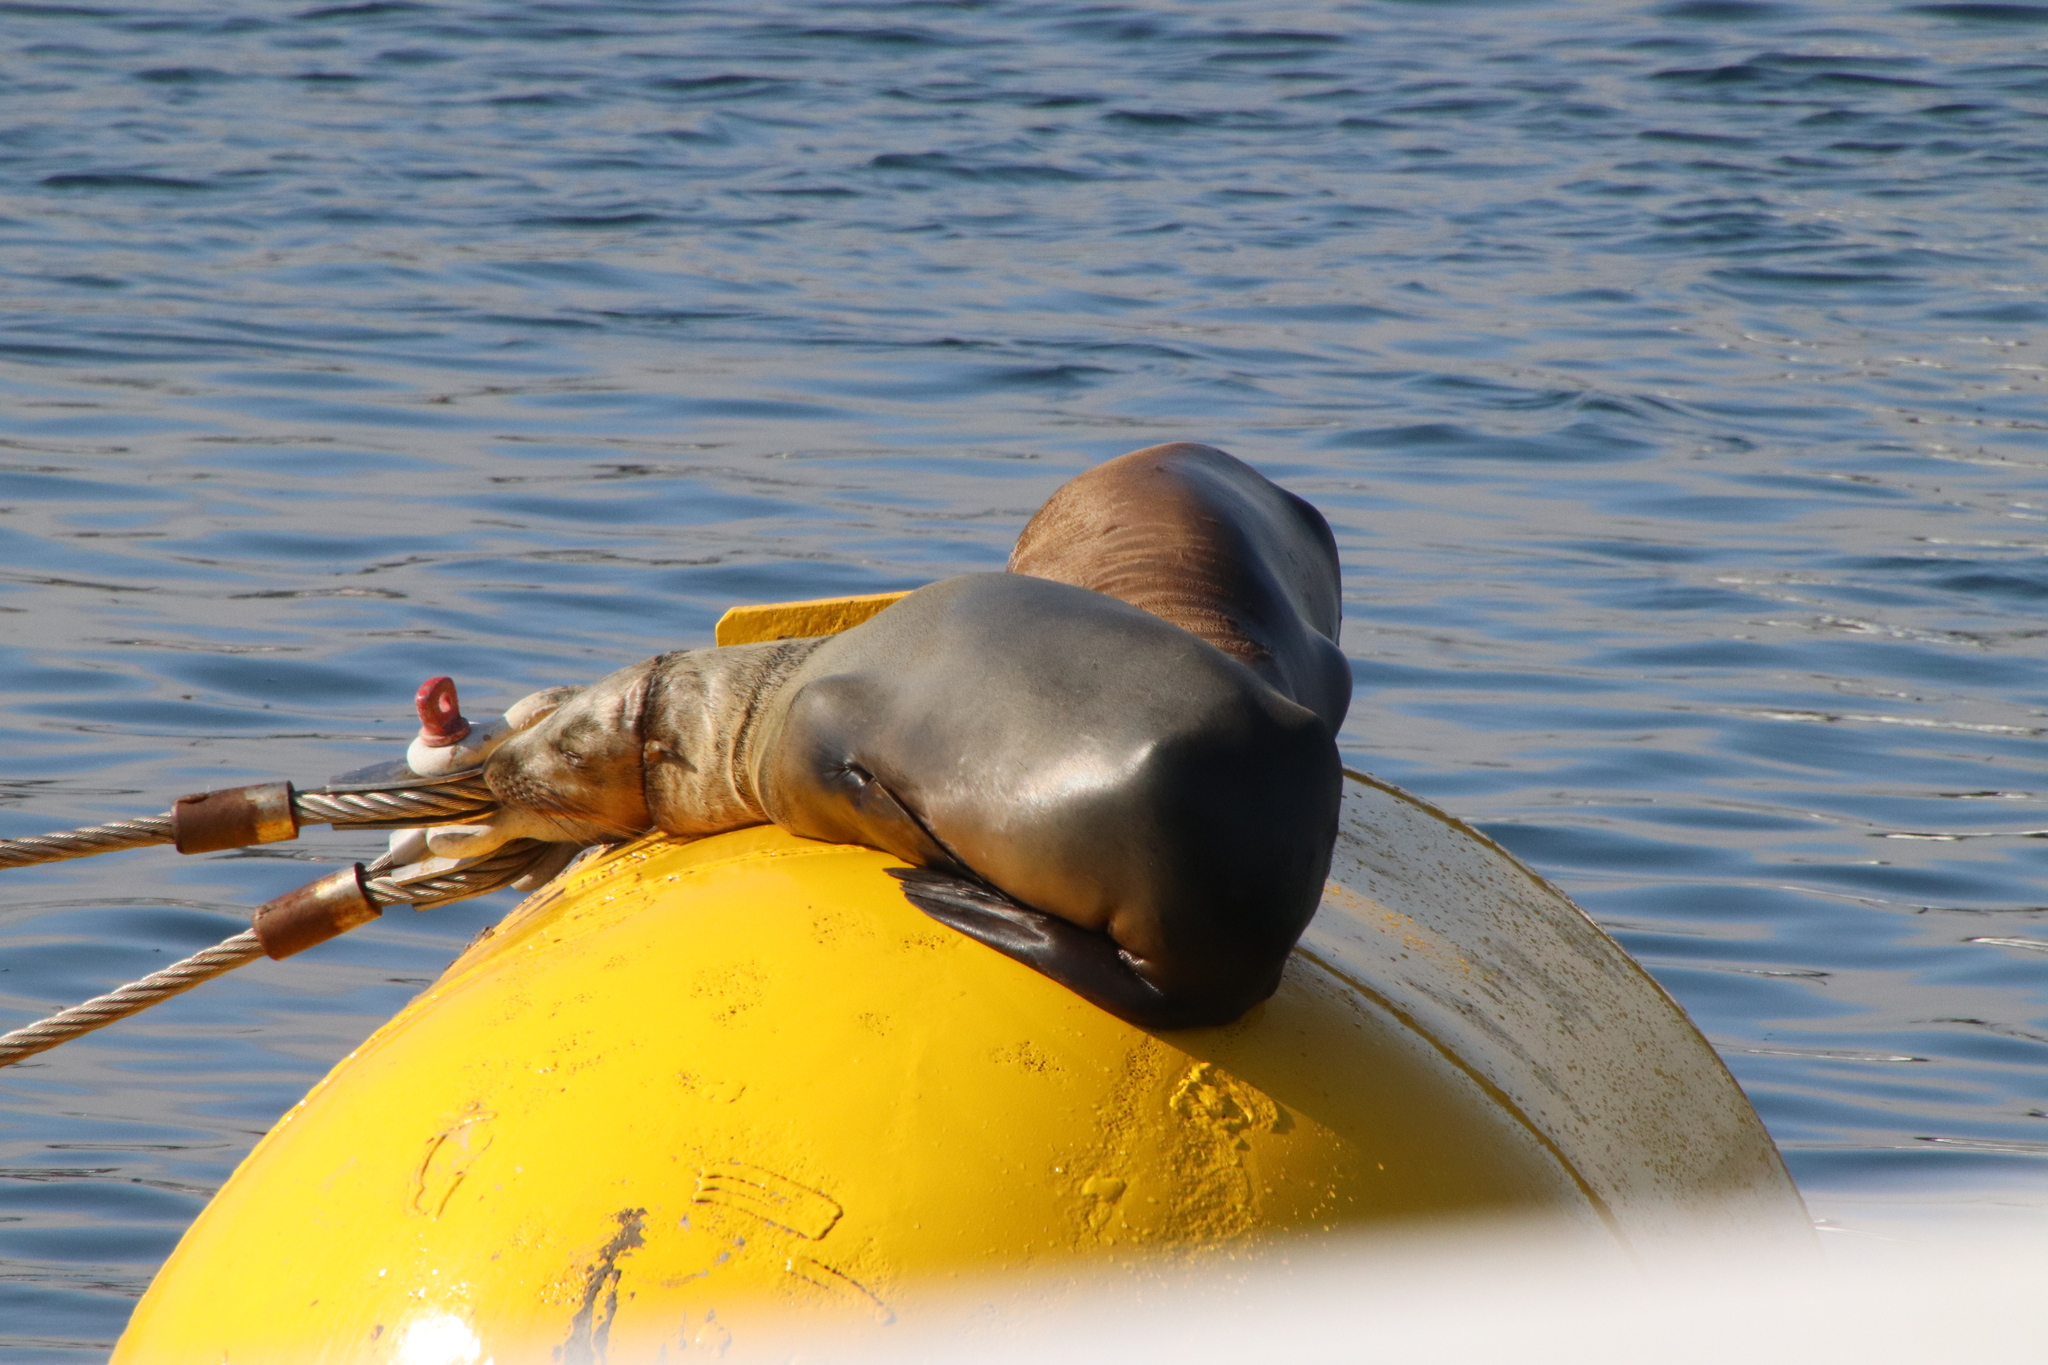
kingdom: Animalia
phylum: Chordata
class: Mammalia
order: Carnivora
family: Otariidae
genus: Zalophus
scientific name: Zalophus californianus
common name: California sea lion
